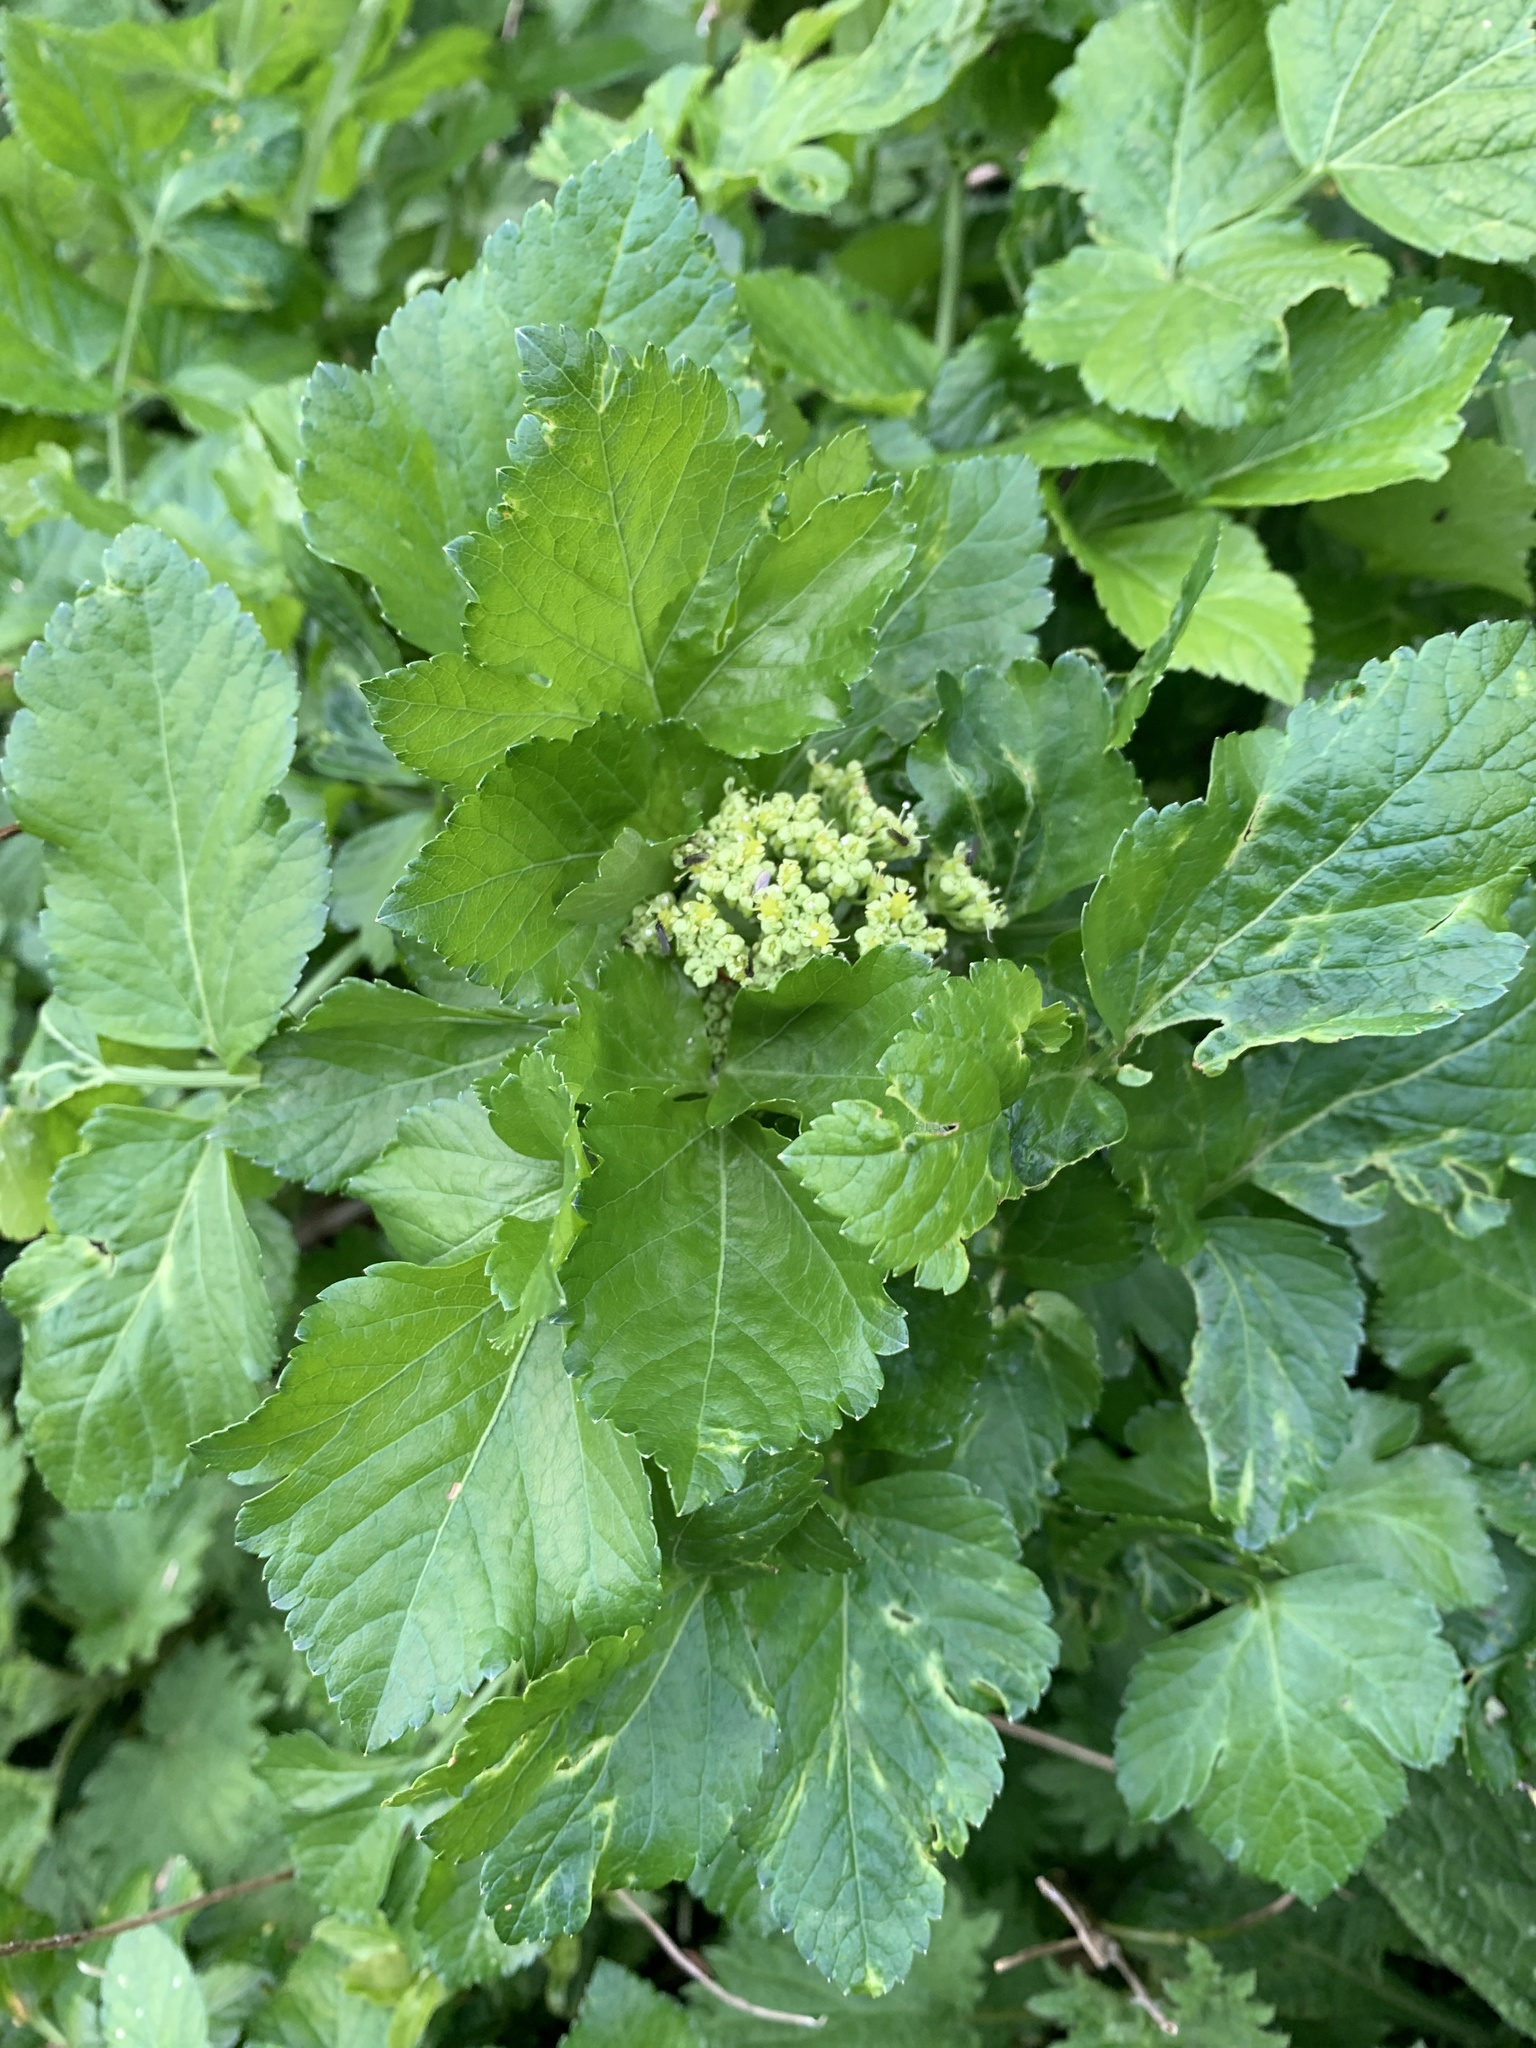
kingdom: Plantae
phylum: Tracheophyta
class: Magnoliopsida
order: Apiales
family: Apiaceae
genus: Smyrnium
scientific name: Smyrnium olusatrum
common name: Alexanders
